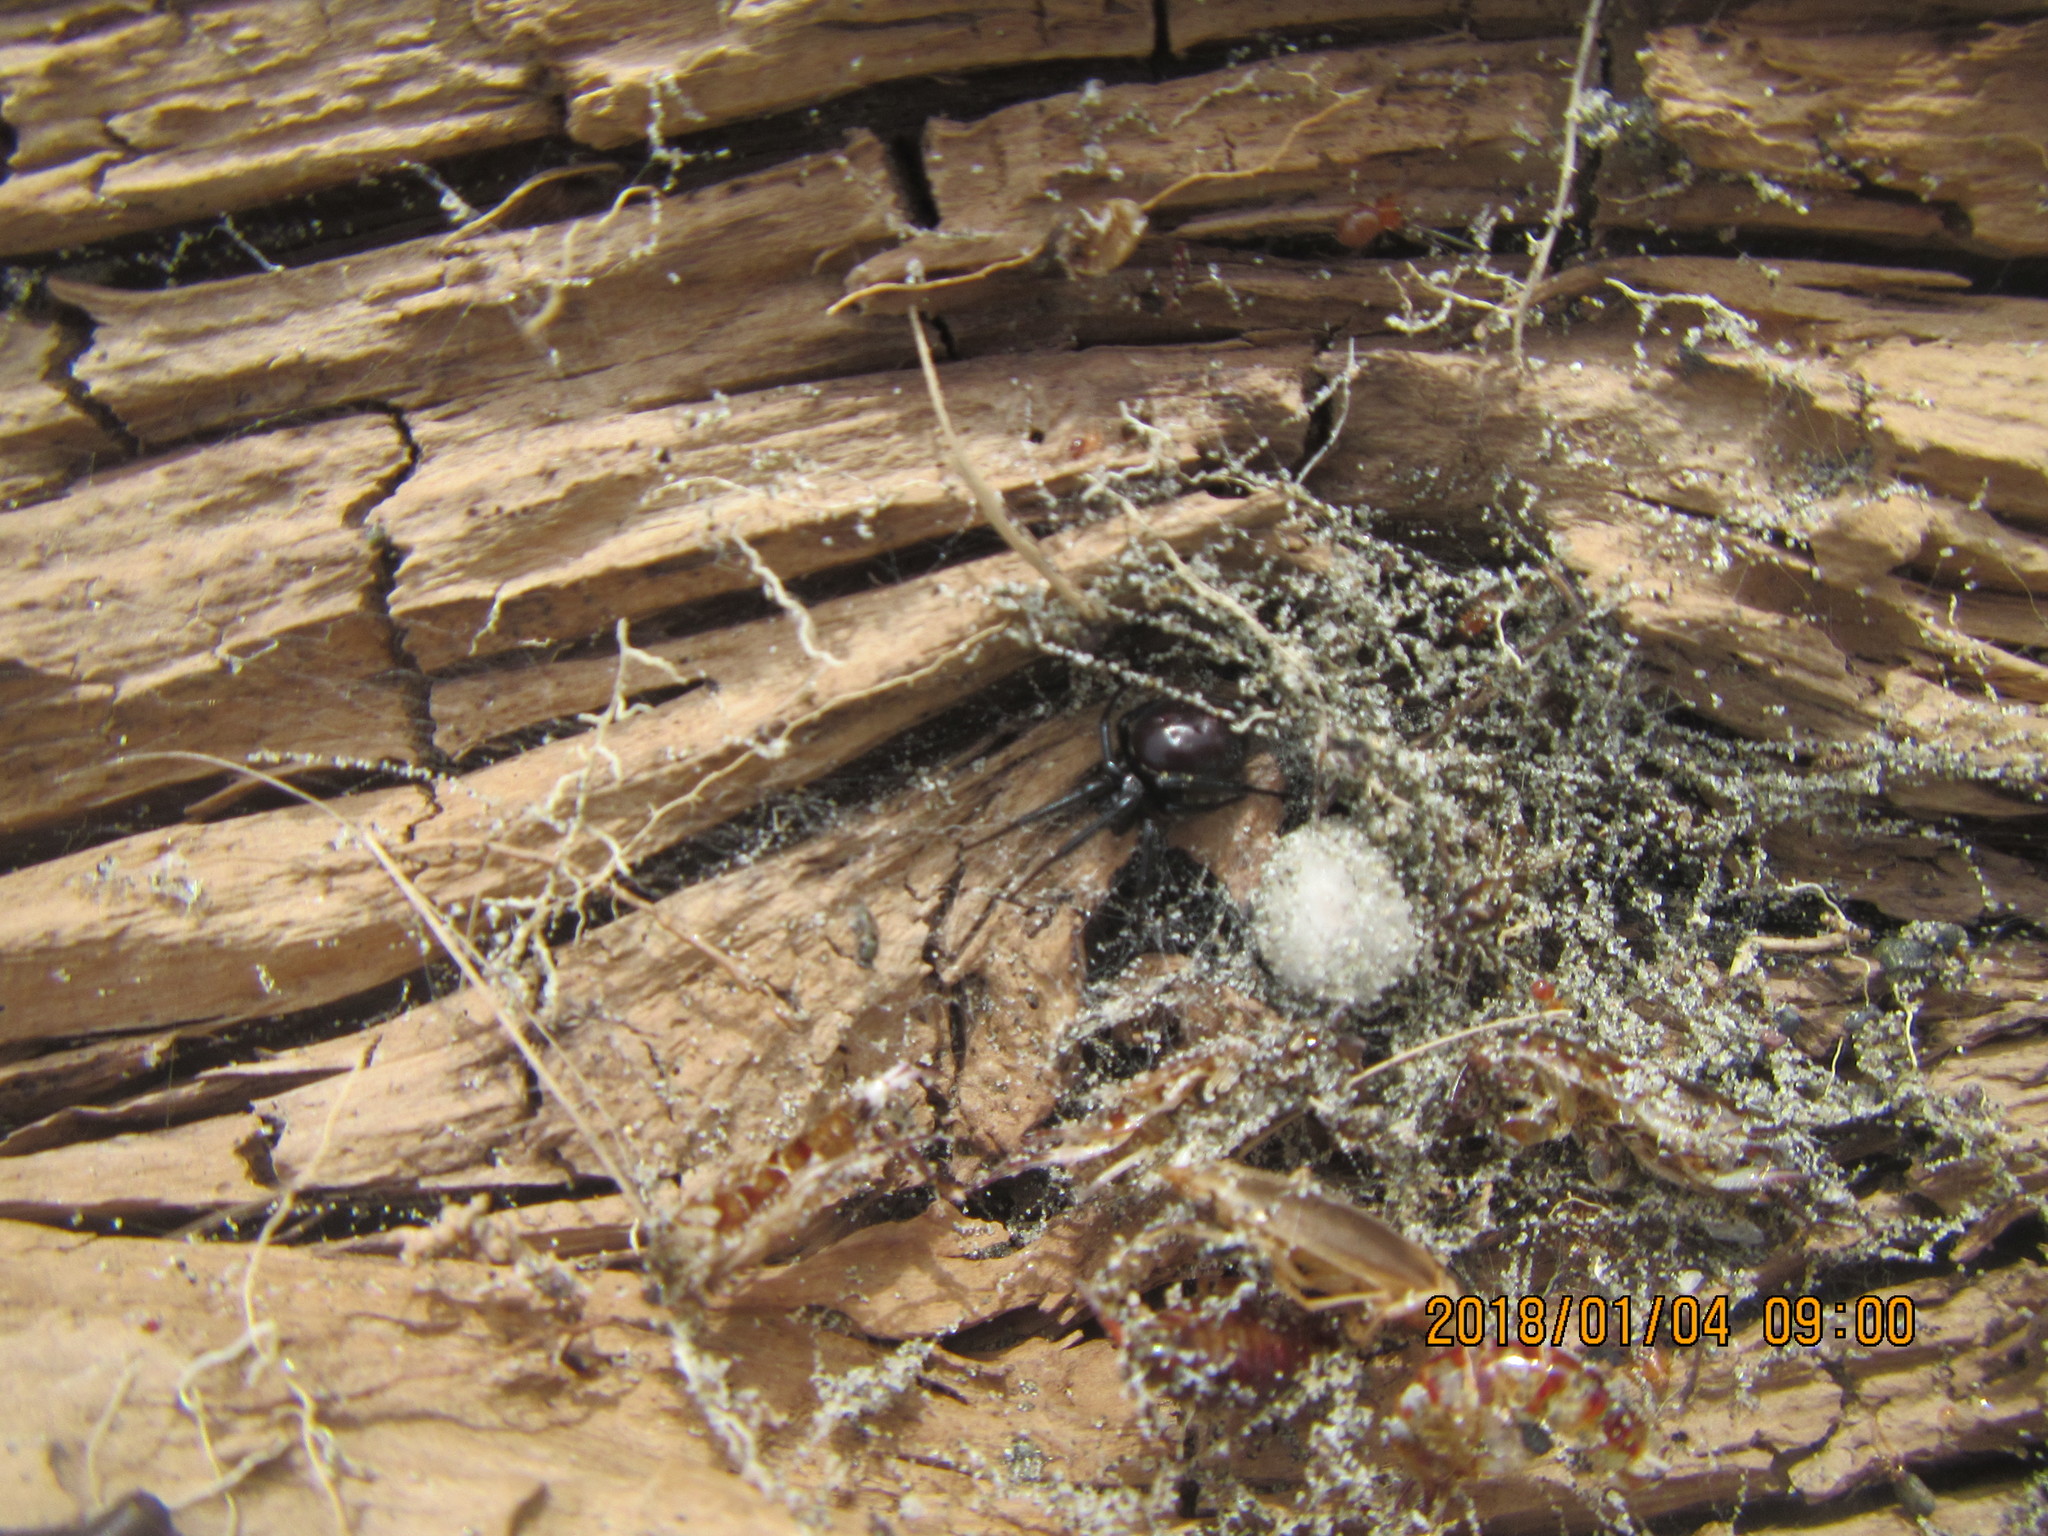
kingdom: Animalia
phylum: Arthropoda
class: Arachnida
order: Araneae
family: Theridiidae
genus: Steatoda
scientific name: Steatoda capensis
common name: Cobweb weaver
